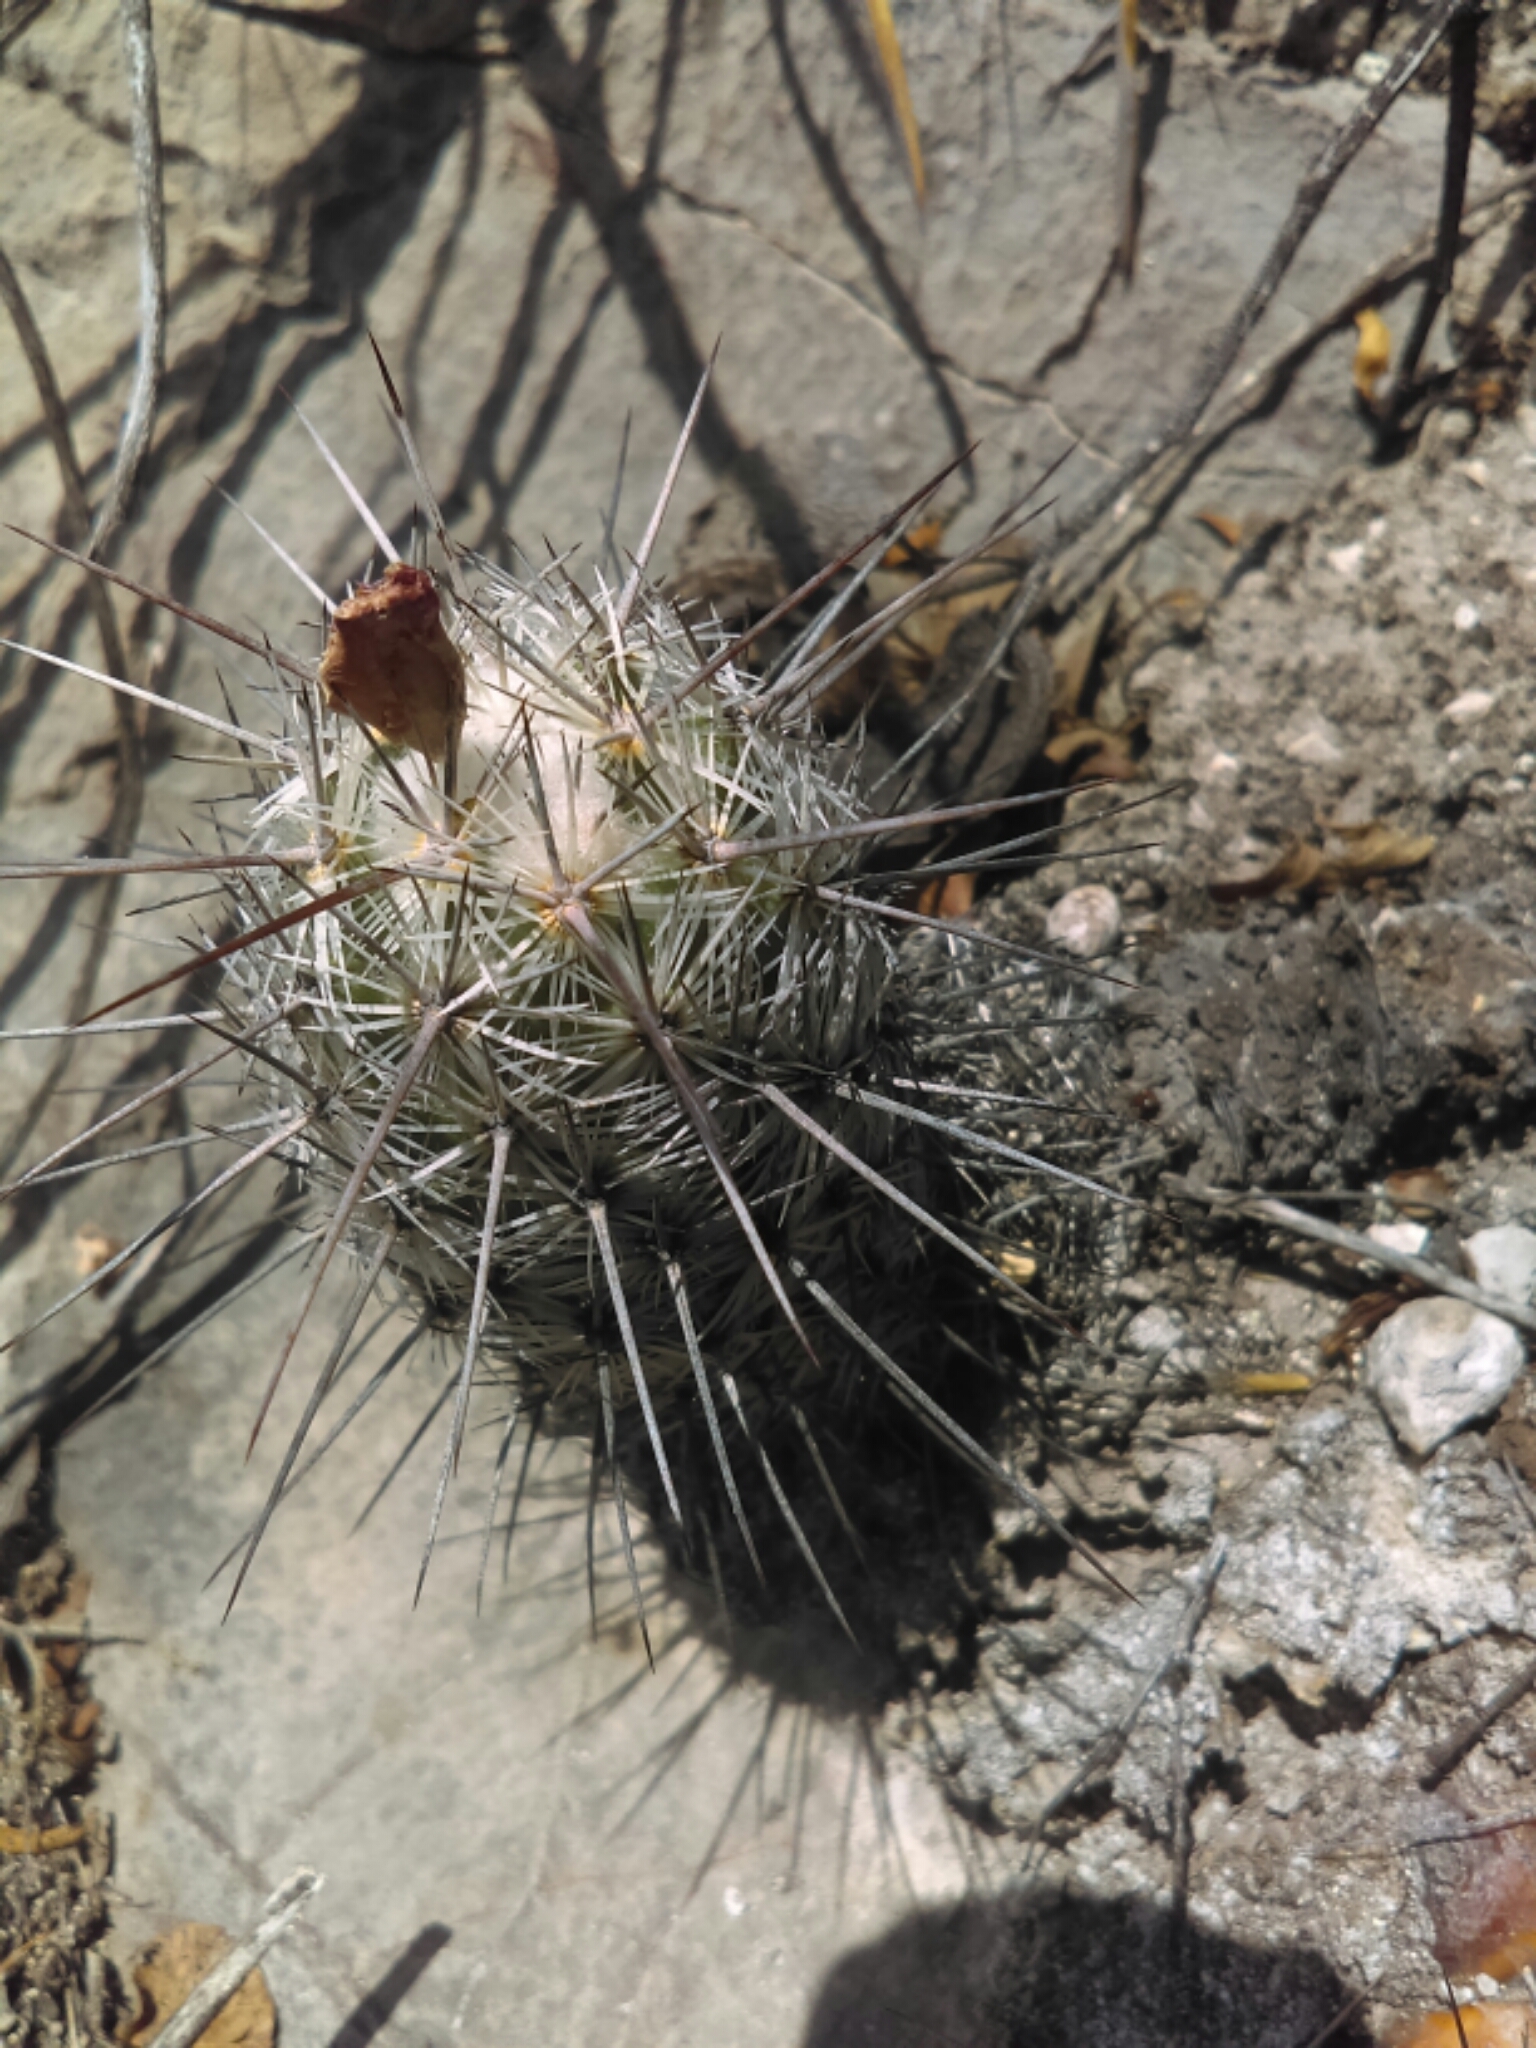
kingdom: Plantae
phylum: Tracheophyta
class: Magnoliopsida
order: Caryophyllales
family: Cactaceae
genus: Cochemiea
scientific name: Cochemiea conoidea
